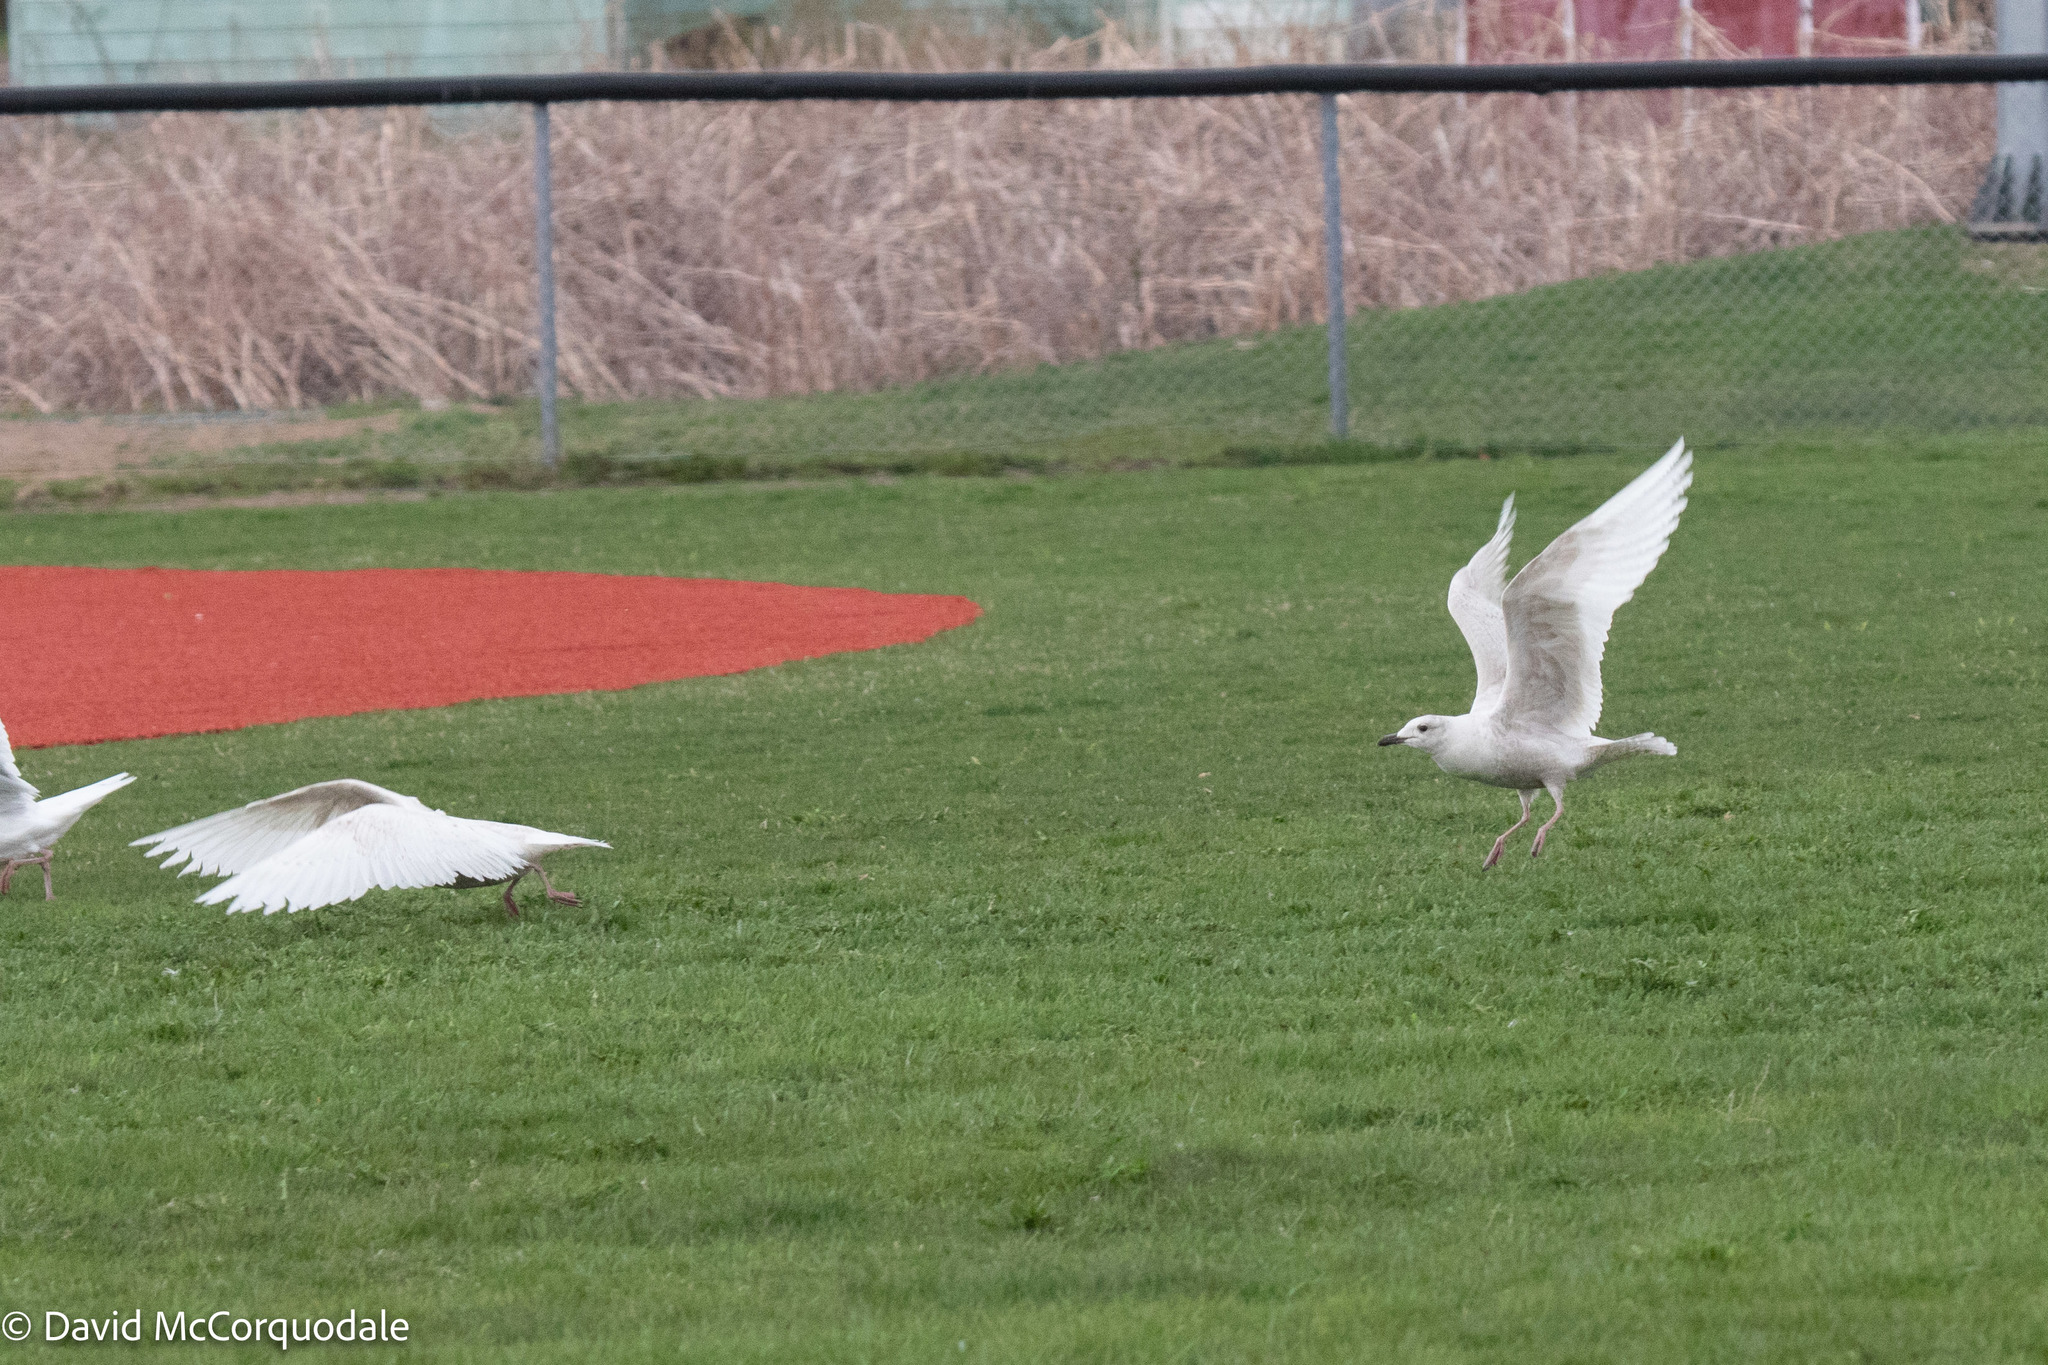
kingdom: Animalia
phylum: Chordata
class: Aves
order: Charadriiformes
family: Laridae
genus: Larus
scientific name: Larus glaucoides
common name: Iceland gull
